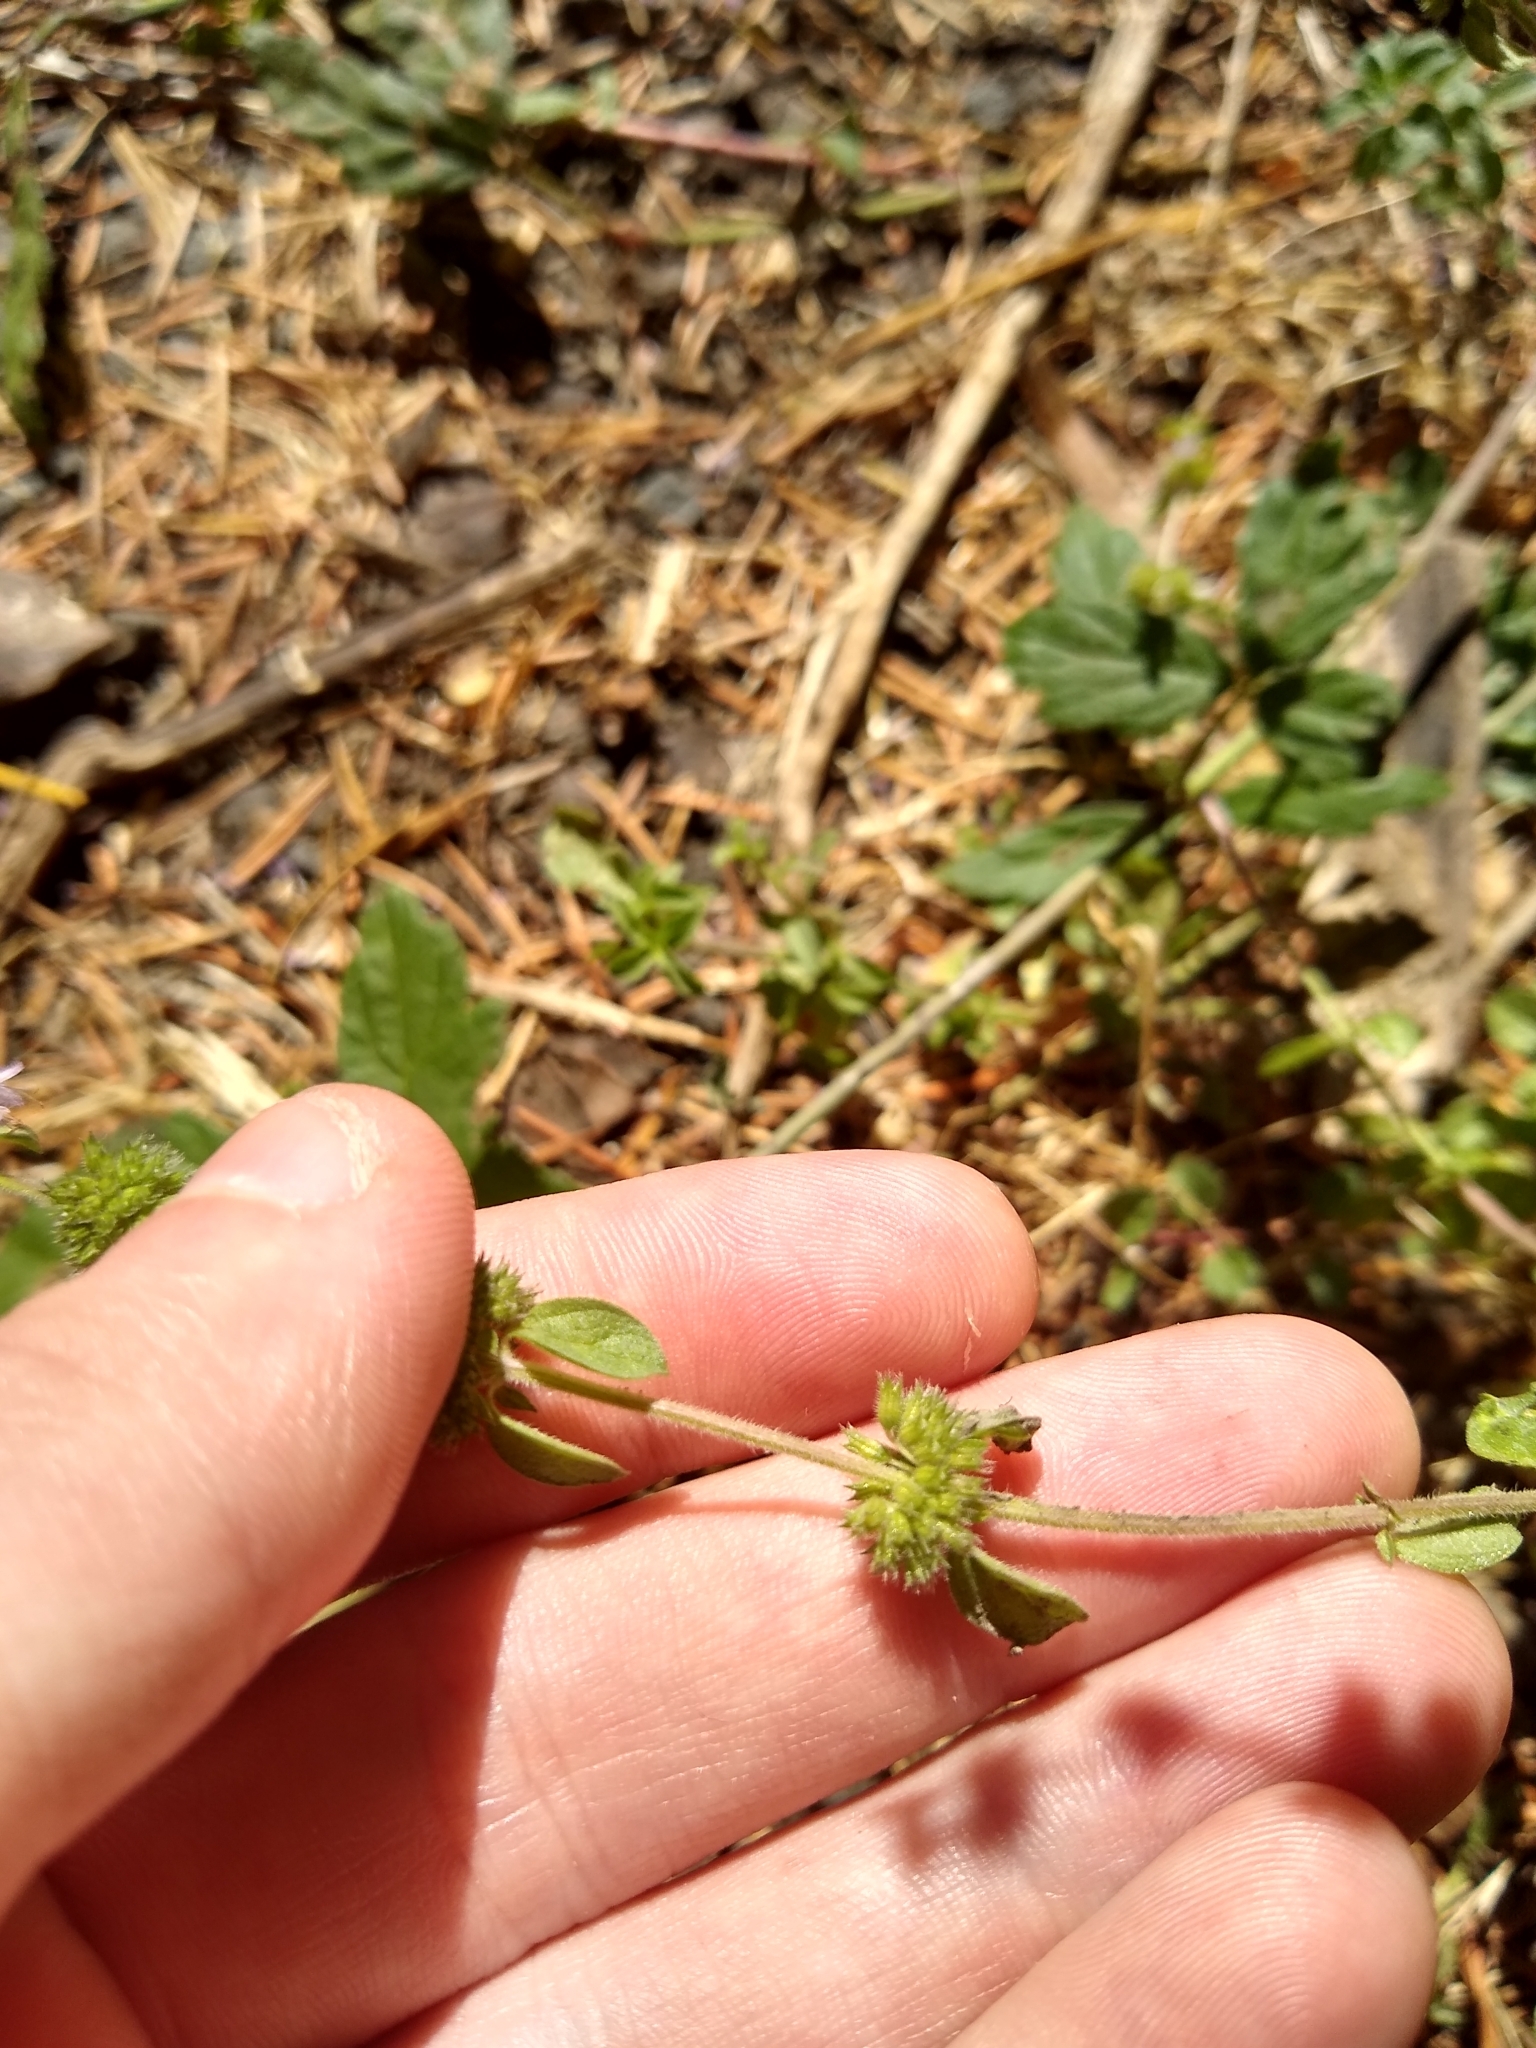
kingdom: Plantae
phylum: Tracheophyta
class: Magnoliopsida
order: Lamiales
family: Lamiaceae
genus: Mentha
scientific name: Mentha pulegium
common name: Pennyroyal
